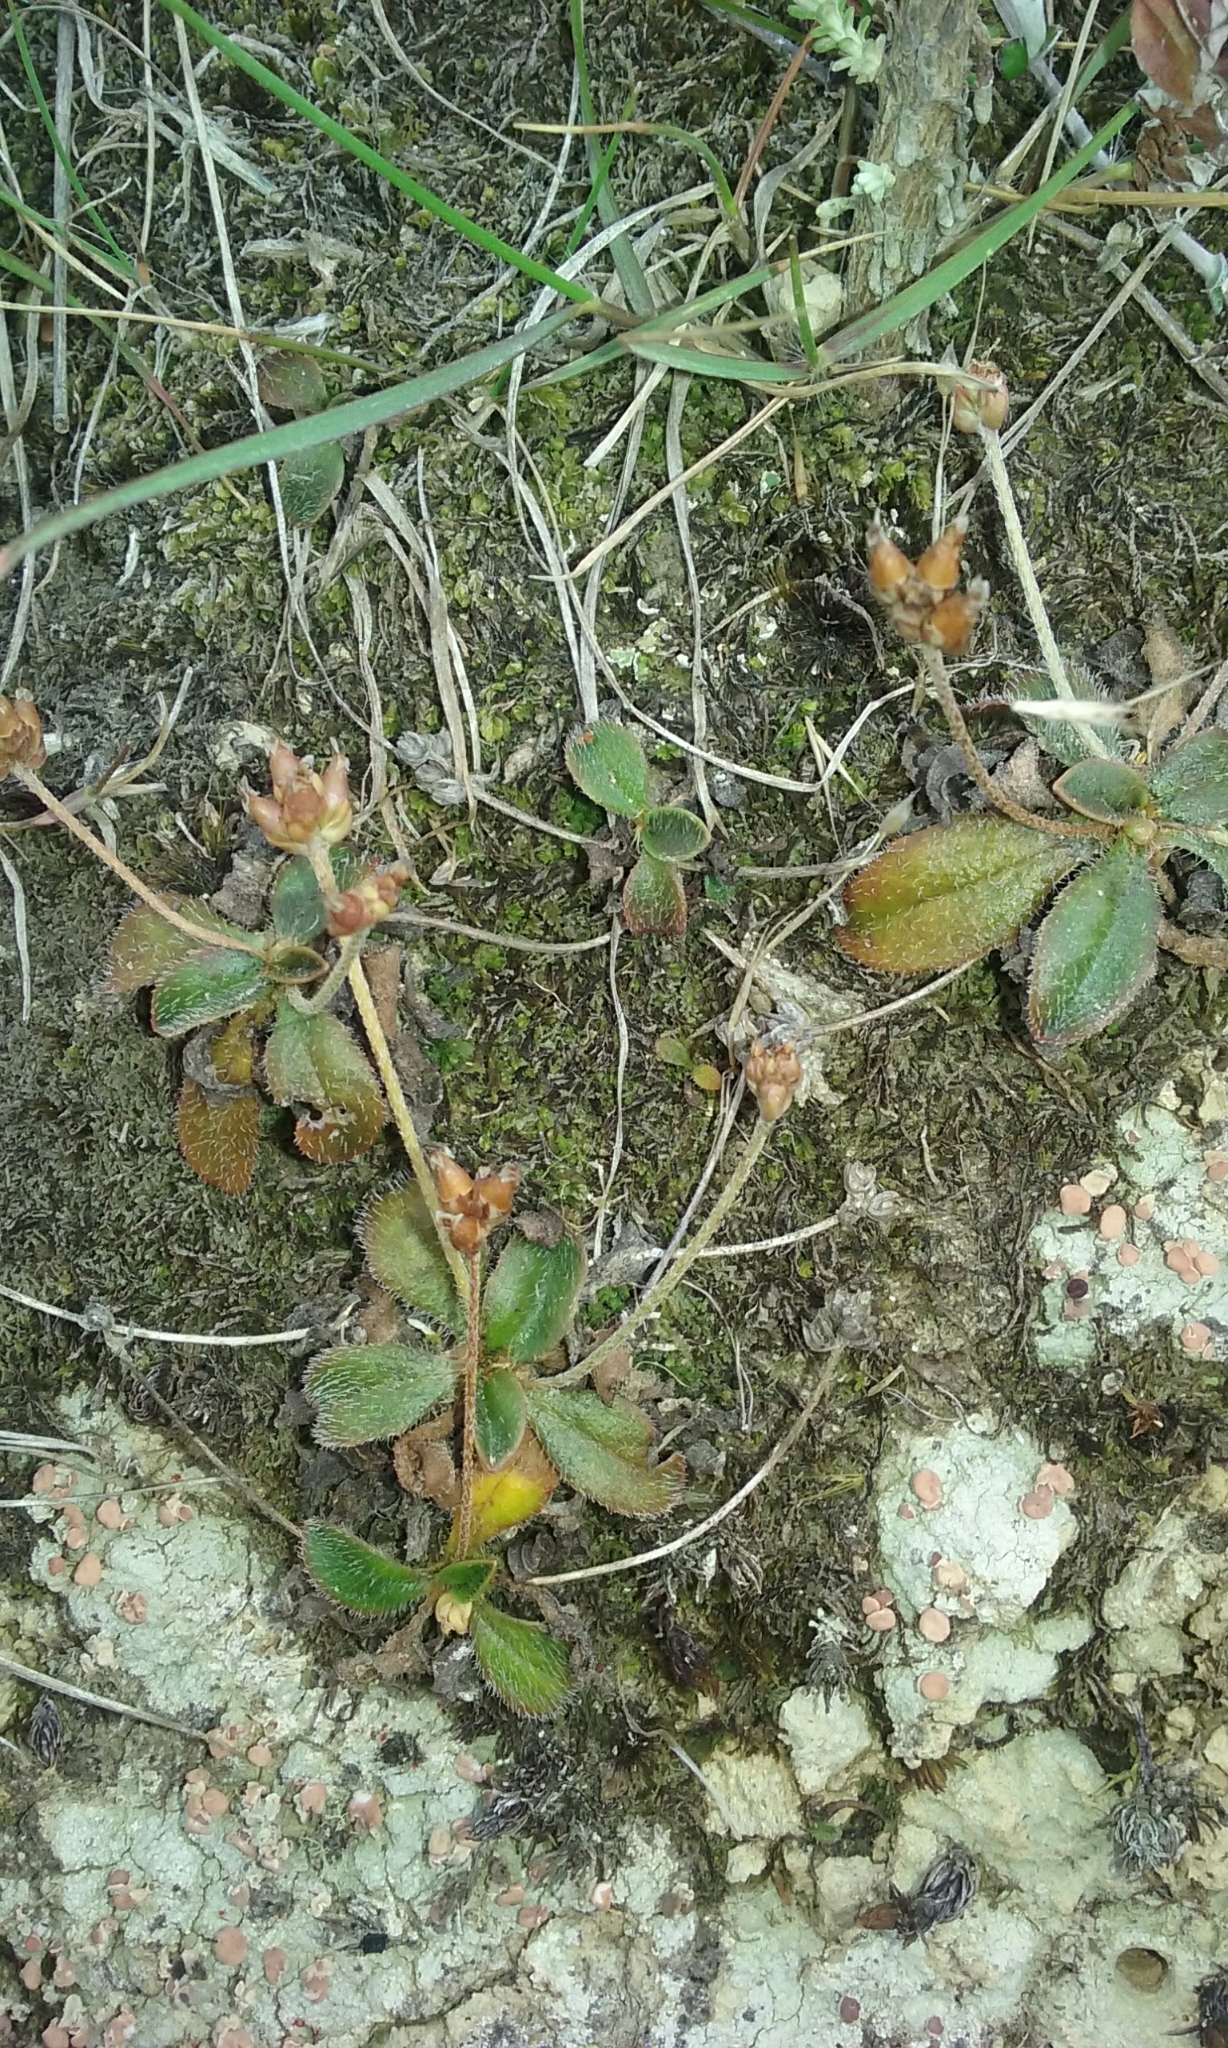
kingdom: Plantae
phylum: Tracheophyta
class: Magnoliopsida
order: Lamiales
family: Plantaginaceae
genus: Plantago
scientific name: Plantago spathulata
